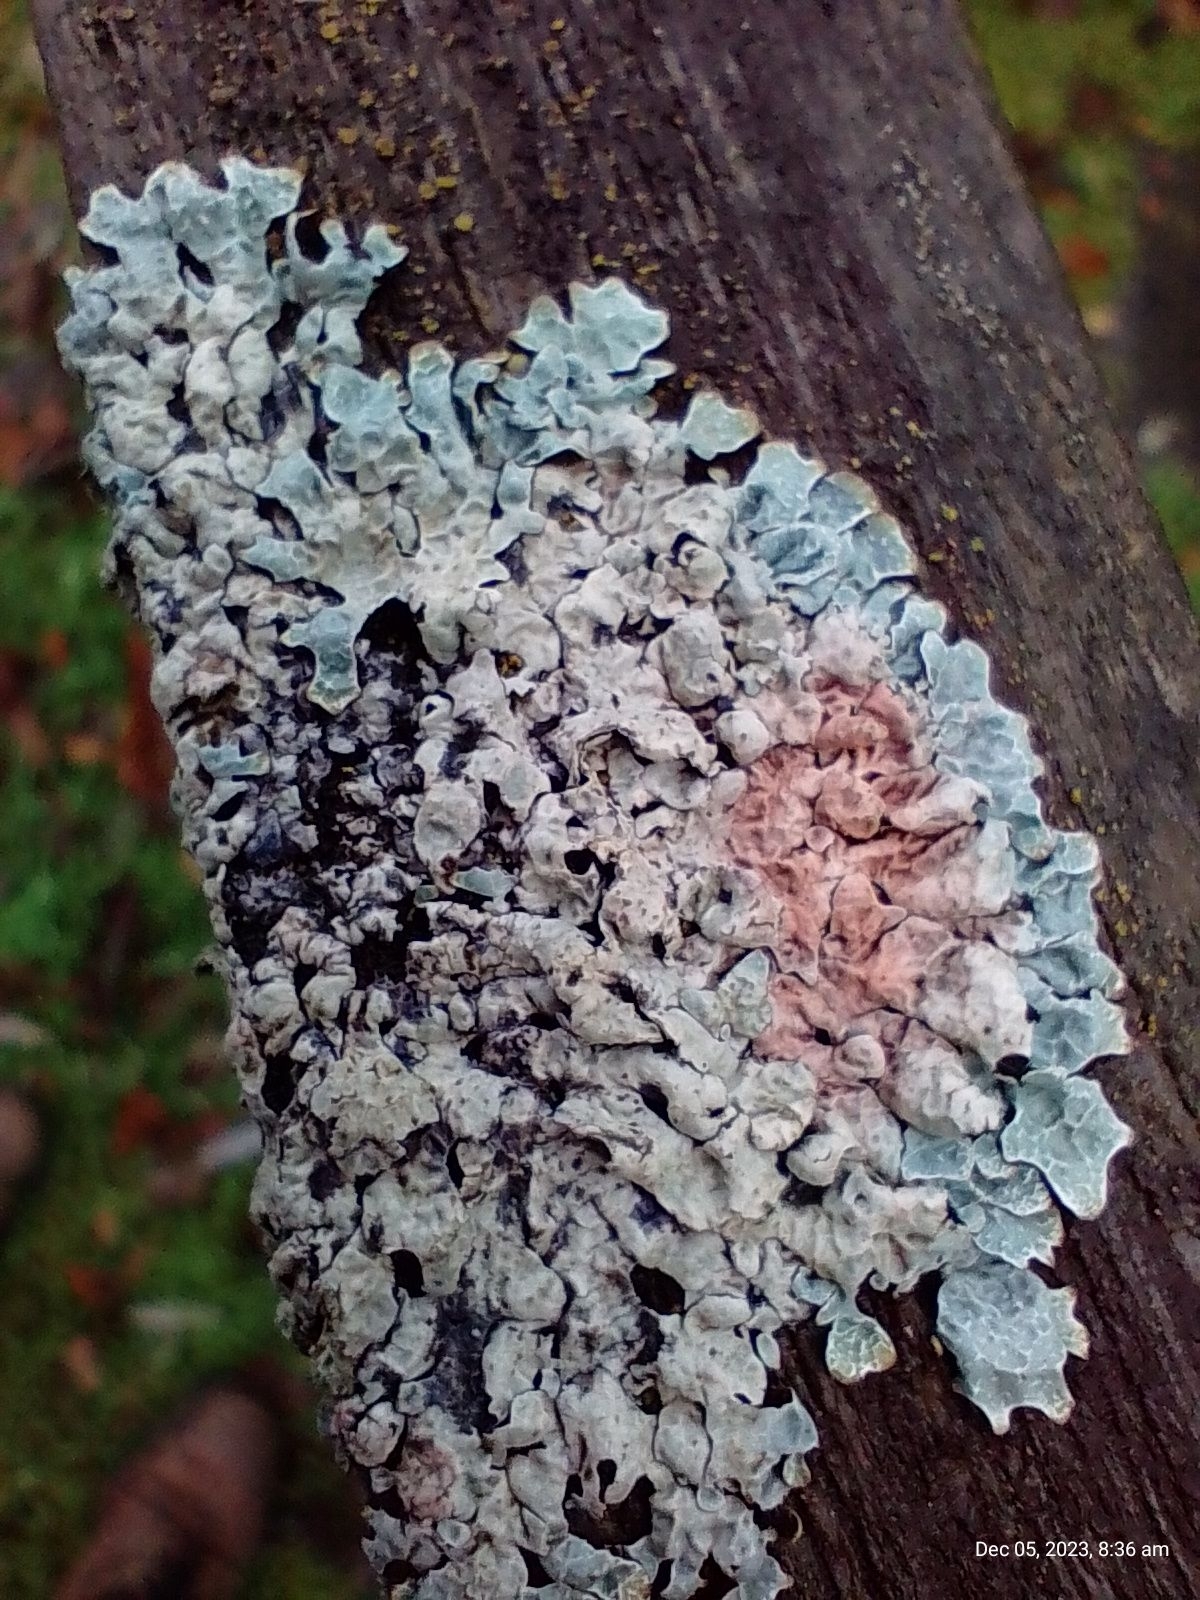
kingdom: Fungi
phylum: Ascomycota
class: Lecanoromycetes
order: Lecanorales
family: Parmeliaceae
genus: Parmelia
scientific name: Parmelia sulcata
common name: Netted shield lichen
